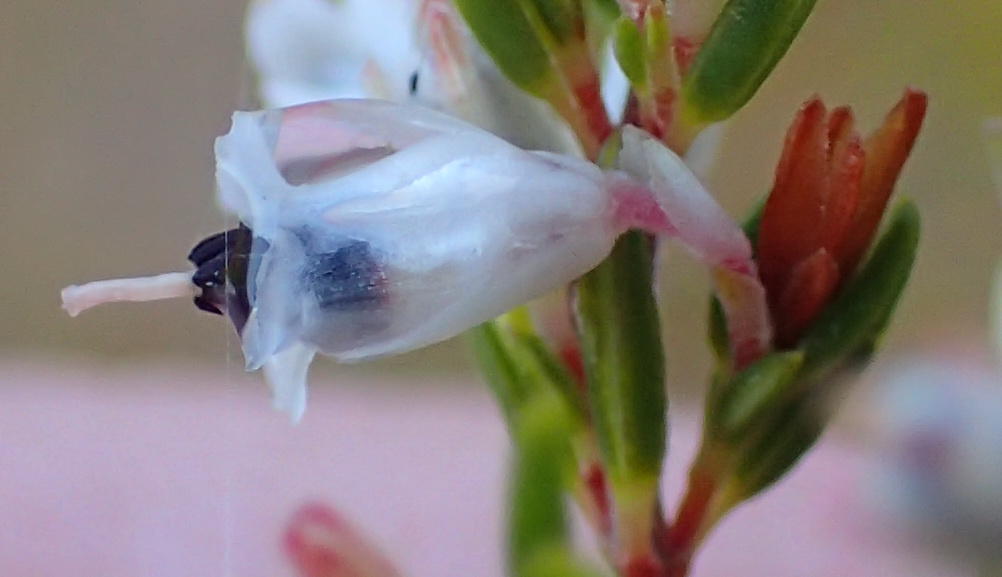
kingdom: Plantae
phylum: Tracheophyta
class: Magnoliopsida
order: Ericales
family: Ericaceae
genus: Erica
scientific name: Erica fuscescens
